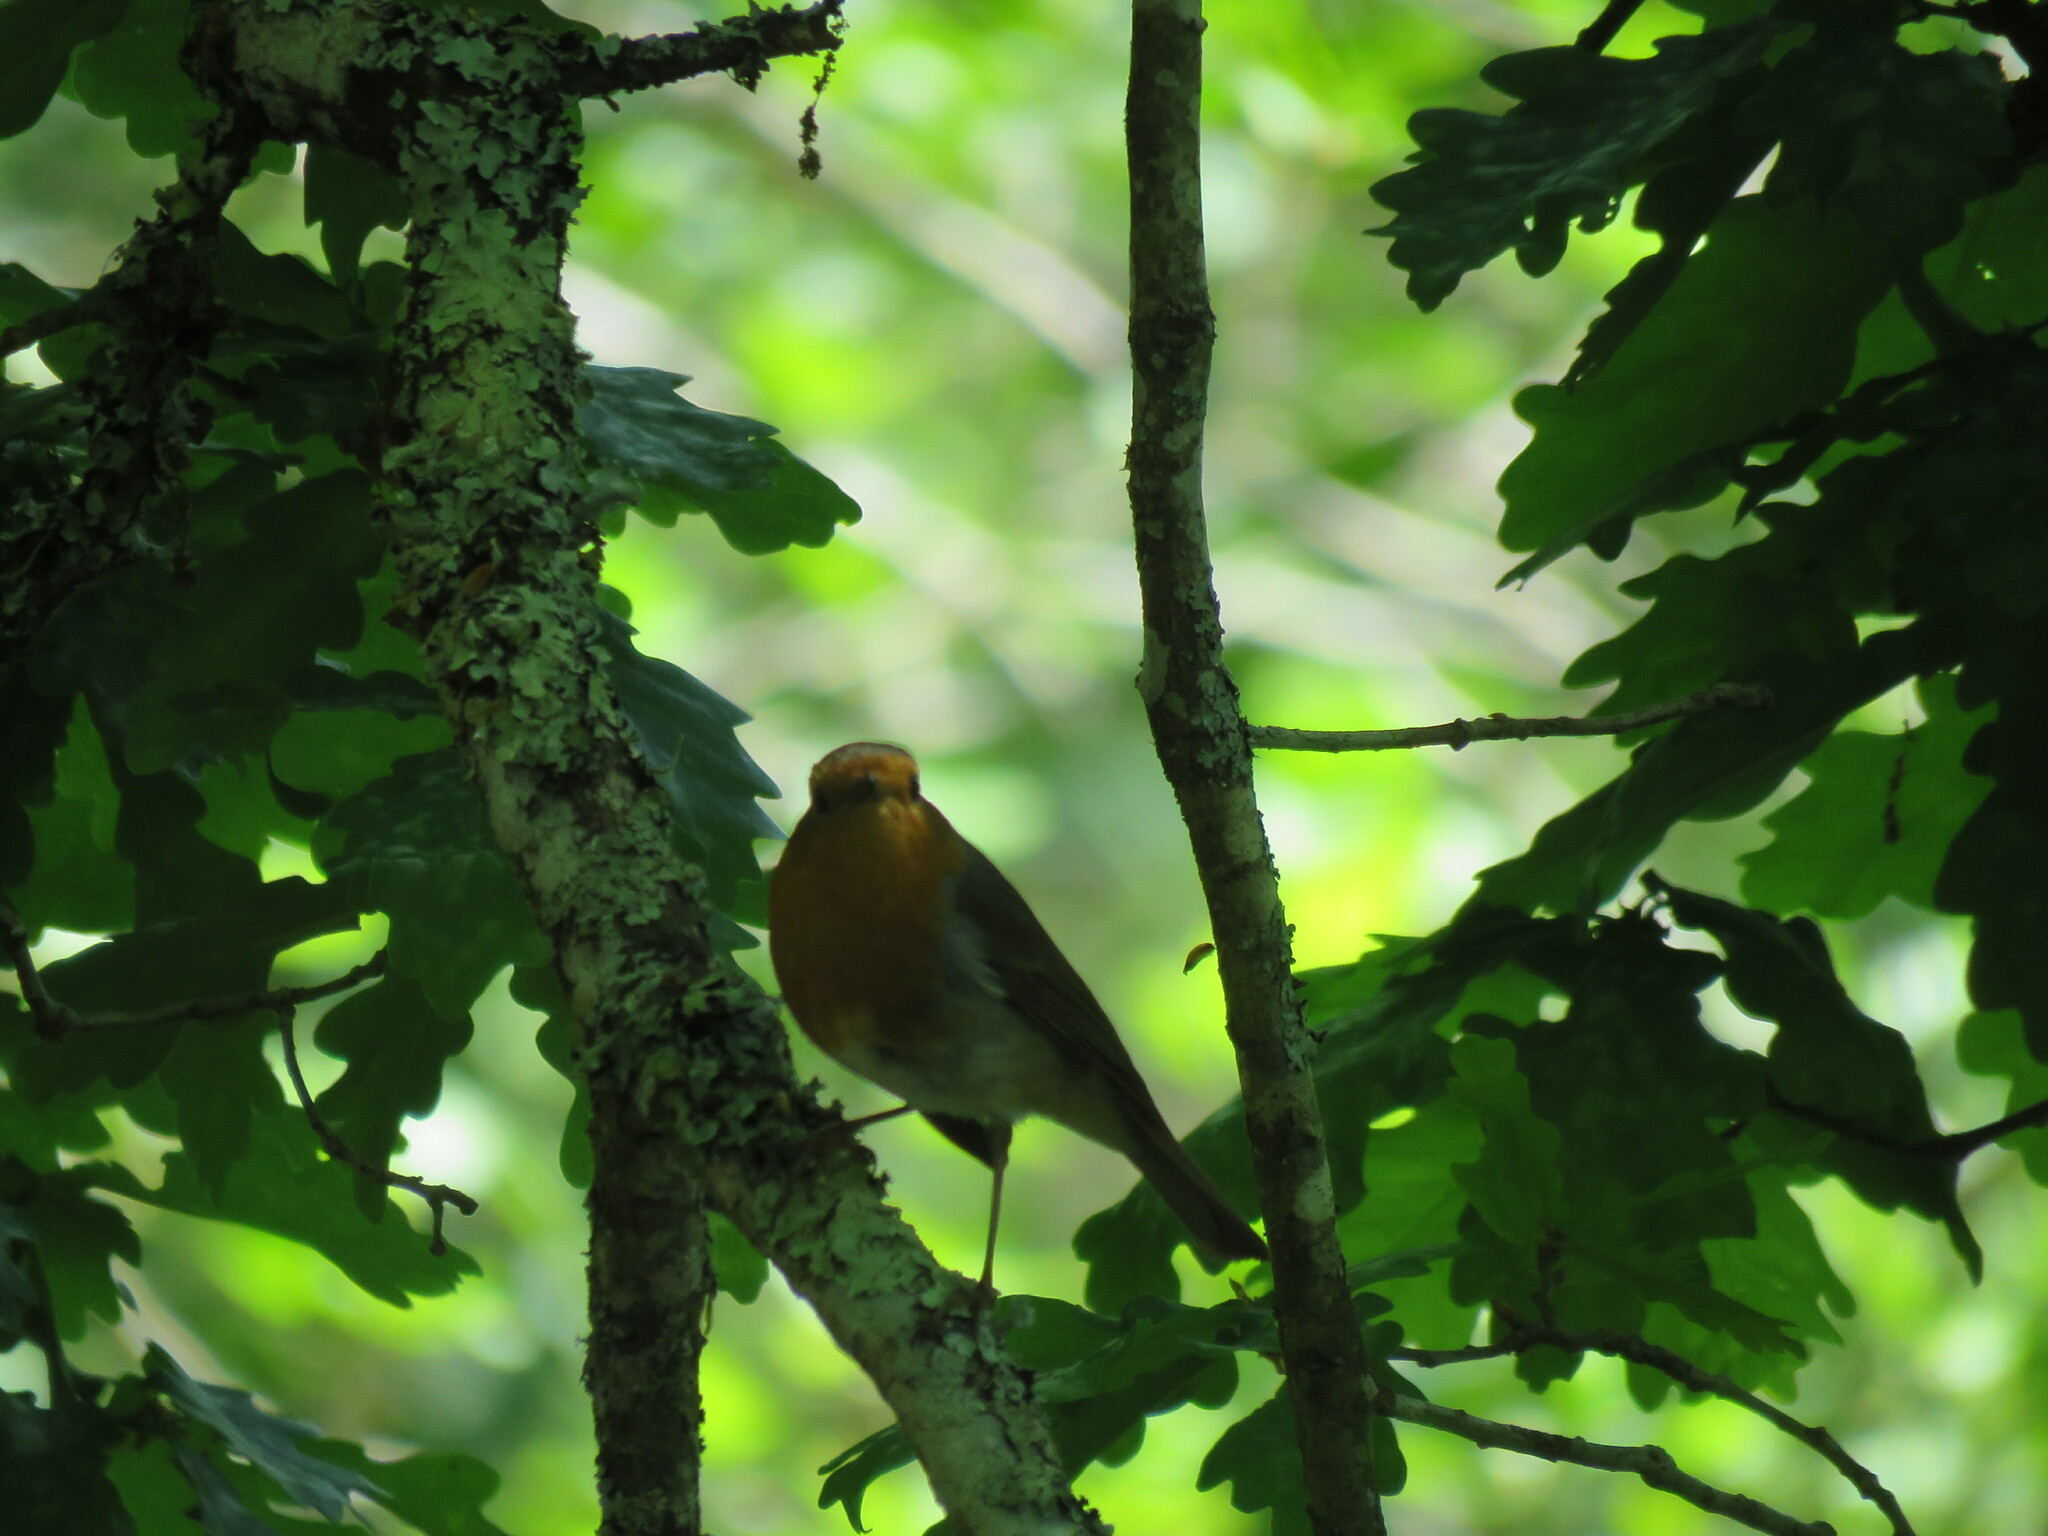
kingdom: Animalia
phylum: Chordata
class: Aves
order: Passeriformes
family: Muscicapidae
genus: Erithacus
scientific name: Erithacus rubecula
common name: European robin
